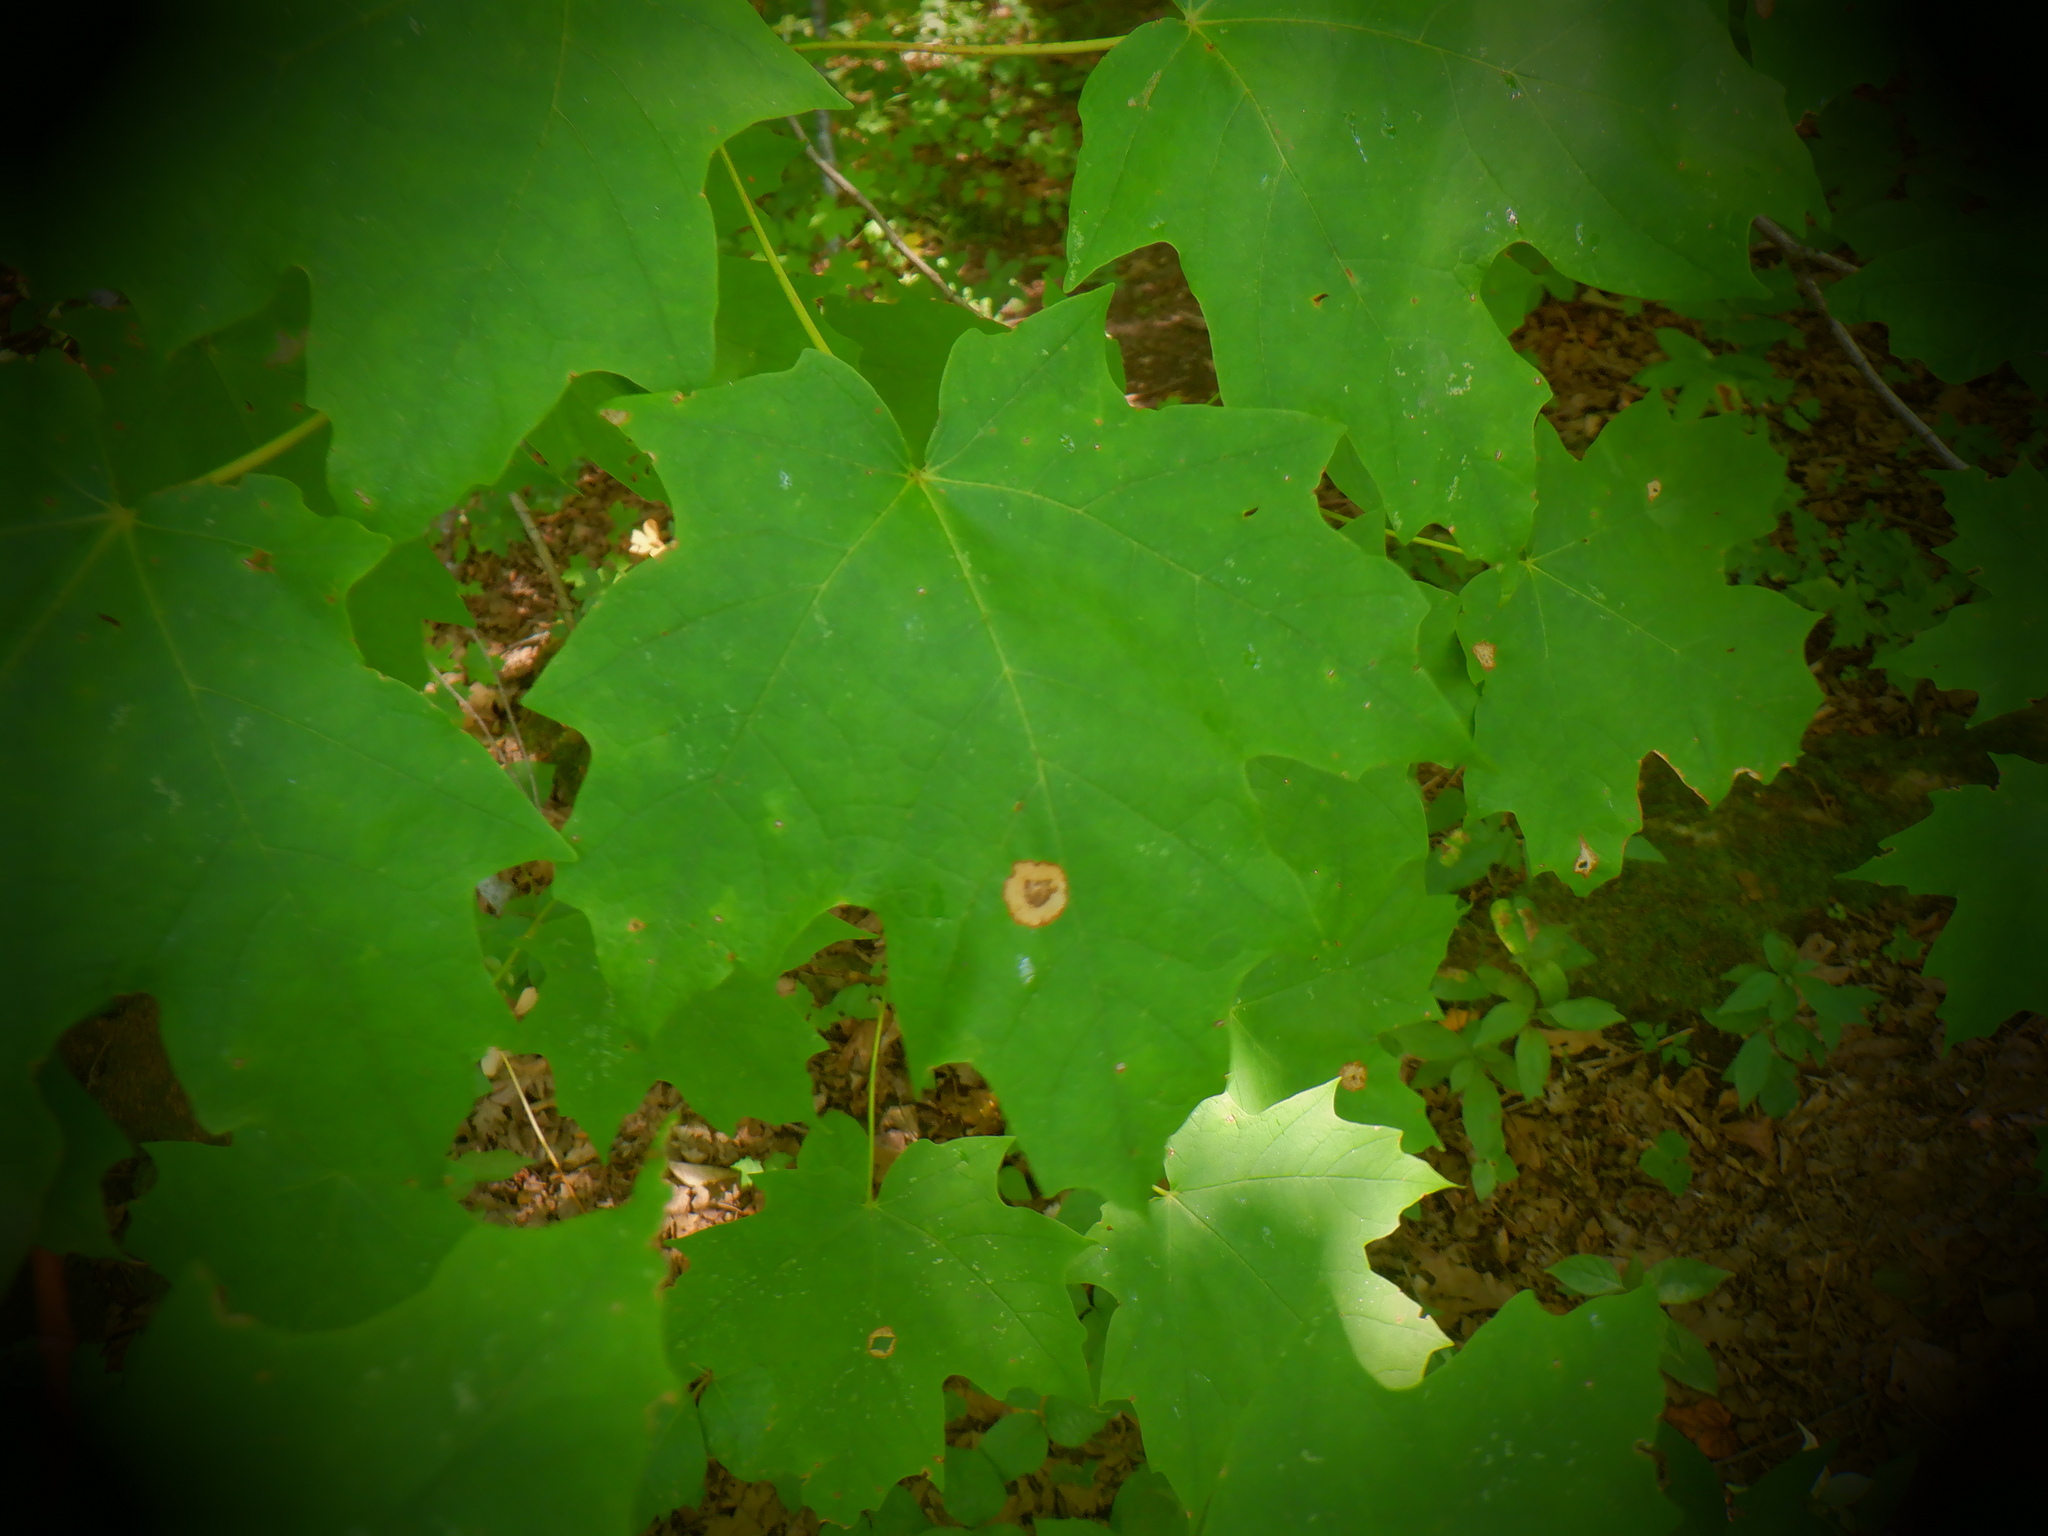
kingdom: Animalia
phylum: Arthropoda
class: Insecta
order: Diptera
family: Cecidomyiidae
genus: Acericecis
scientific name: Acericecis ocellaris
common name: Ocellate gall midge
